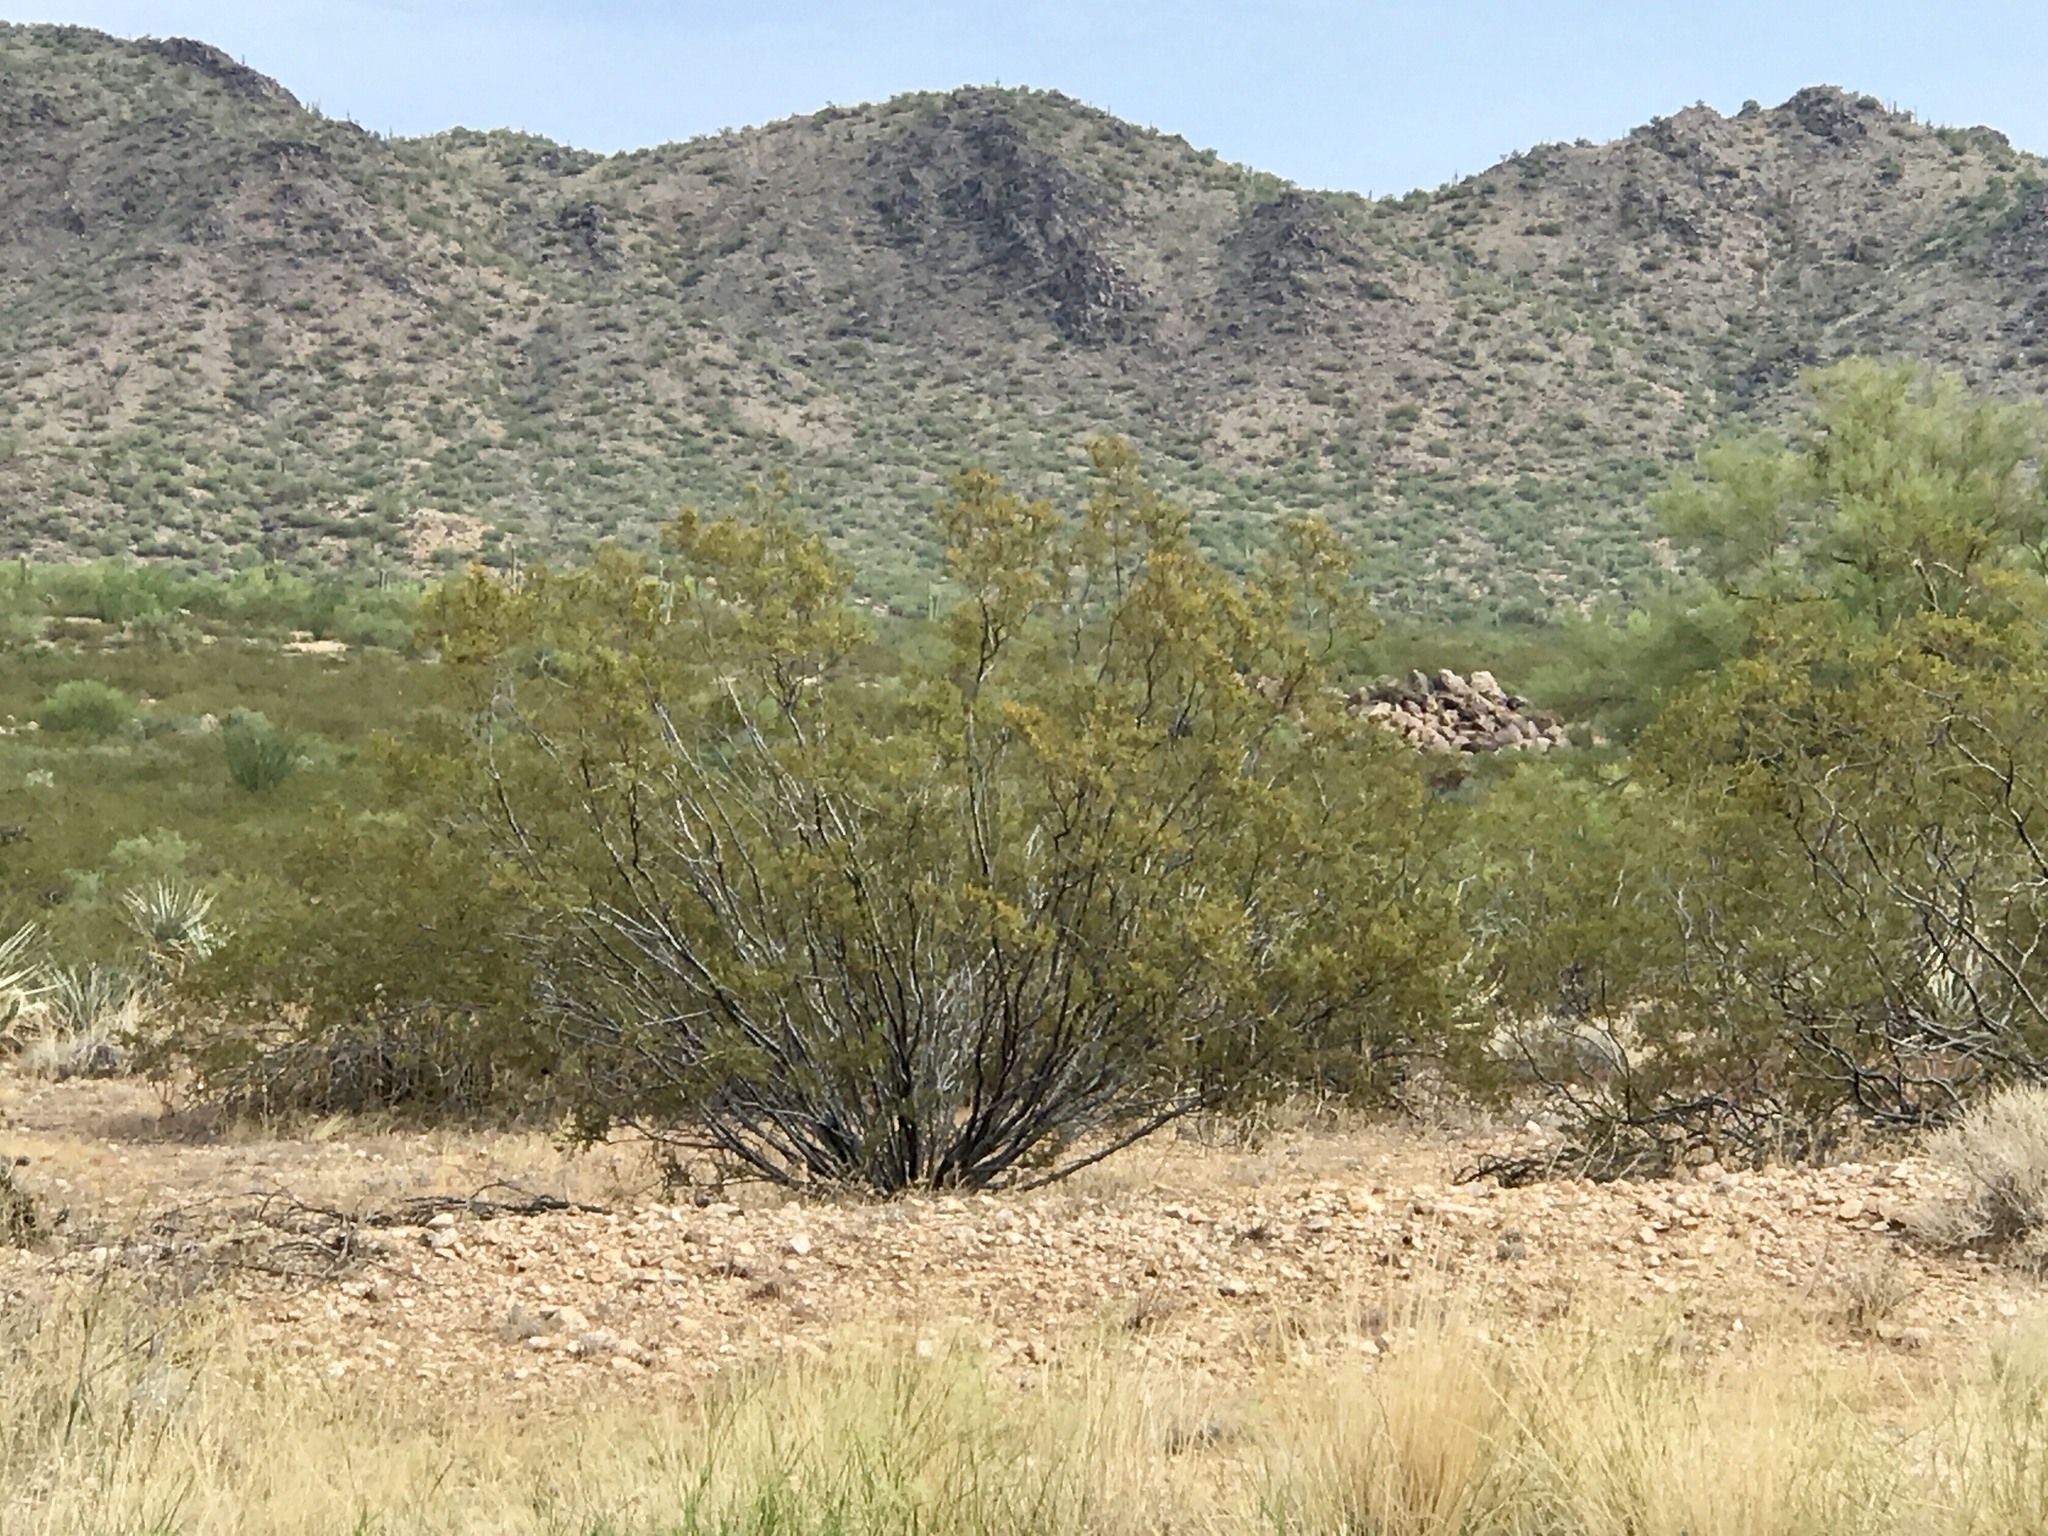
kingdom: Plantae
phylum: Tracheophyta
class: Magnoliopsida
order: Zygophyllales
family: Zygophyllaceae
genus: Larrea
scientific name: Larrea tridentata
